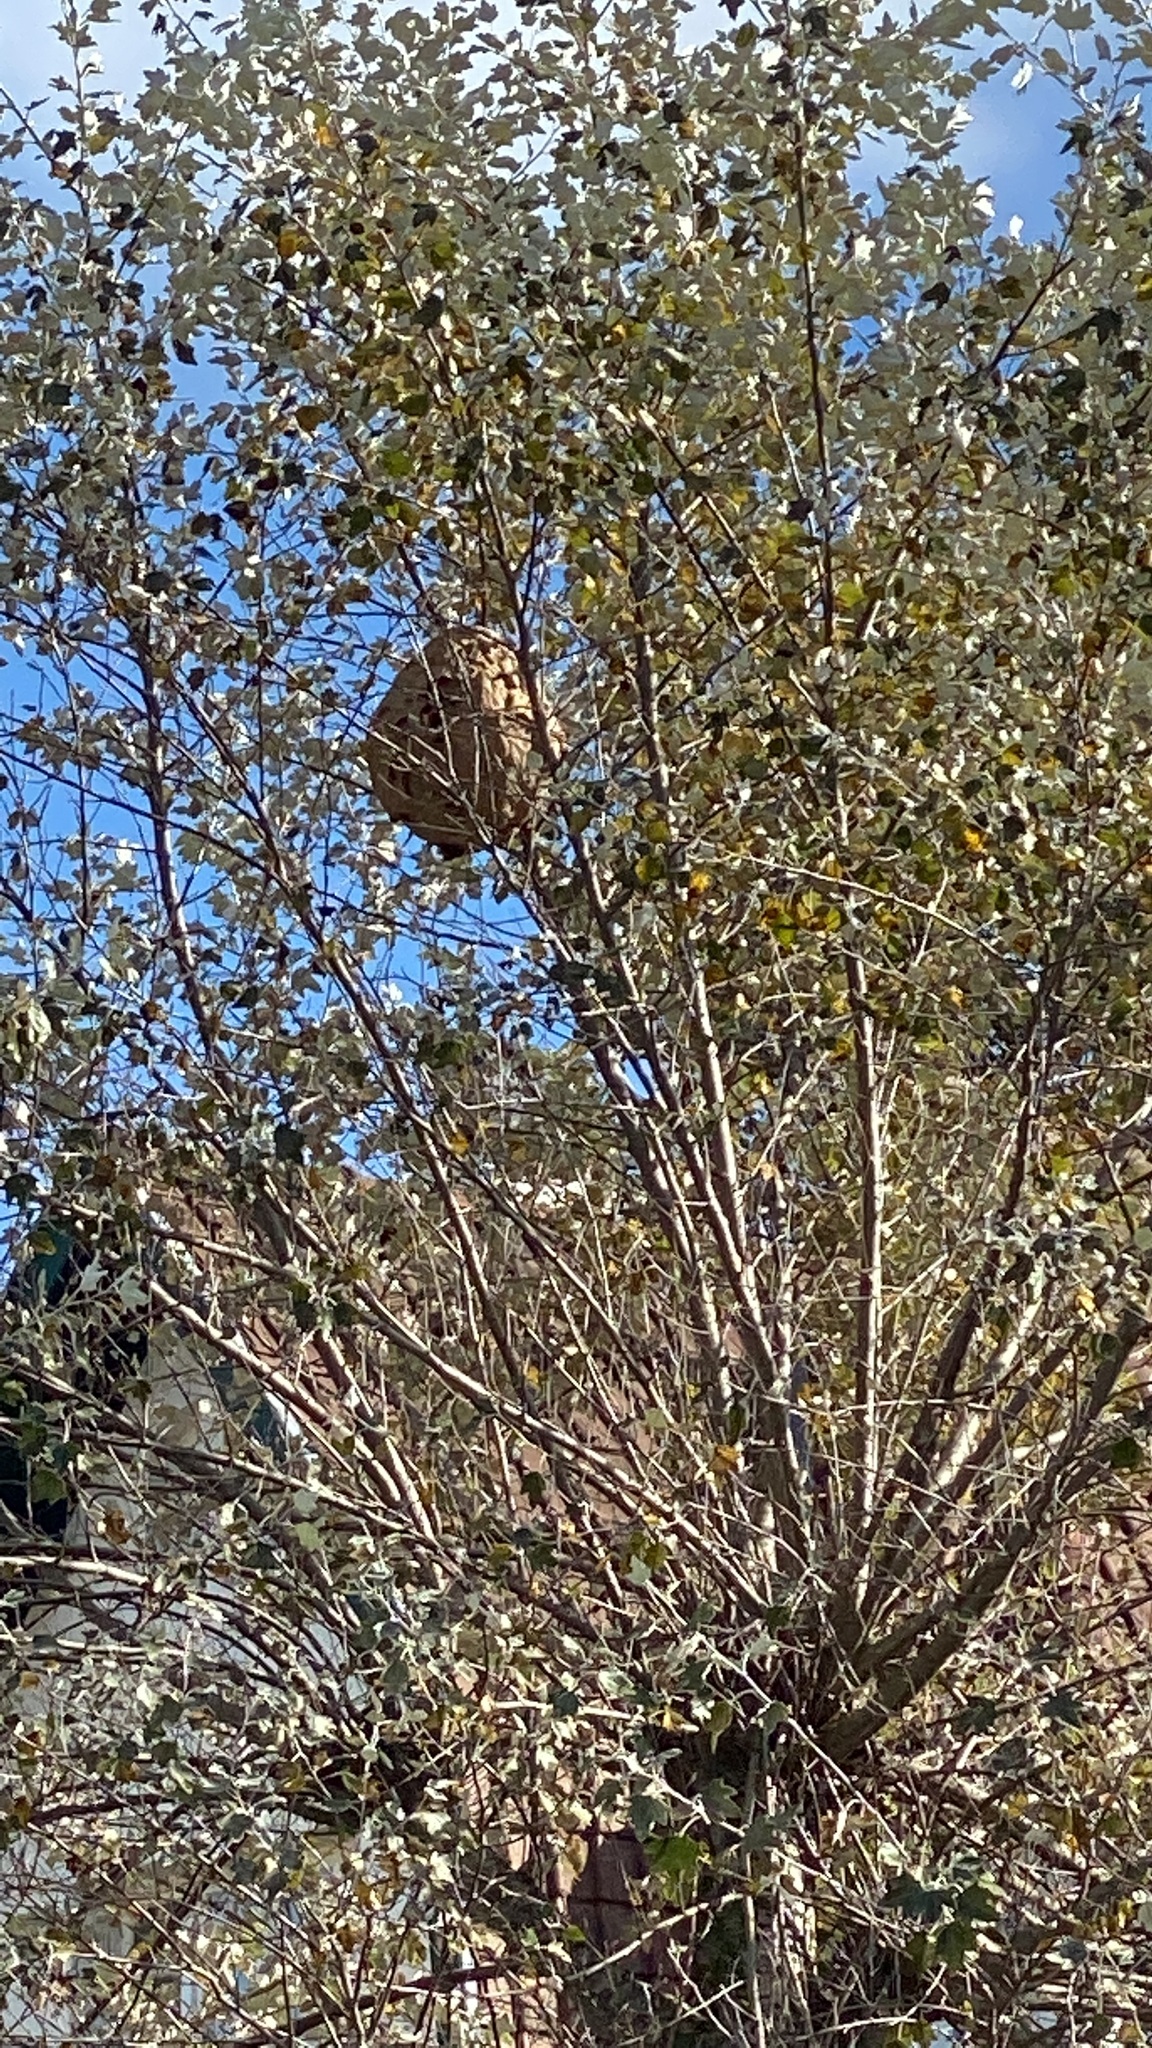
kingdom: Animalia
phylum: Arthropoda
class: Insecta
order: Hymenoptera
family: Vespidae
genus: Vespa
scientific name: Vespa velutina
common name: Asian hornet
